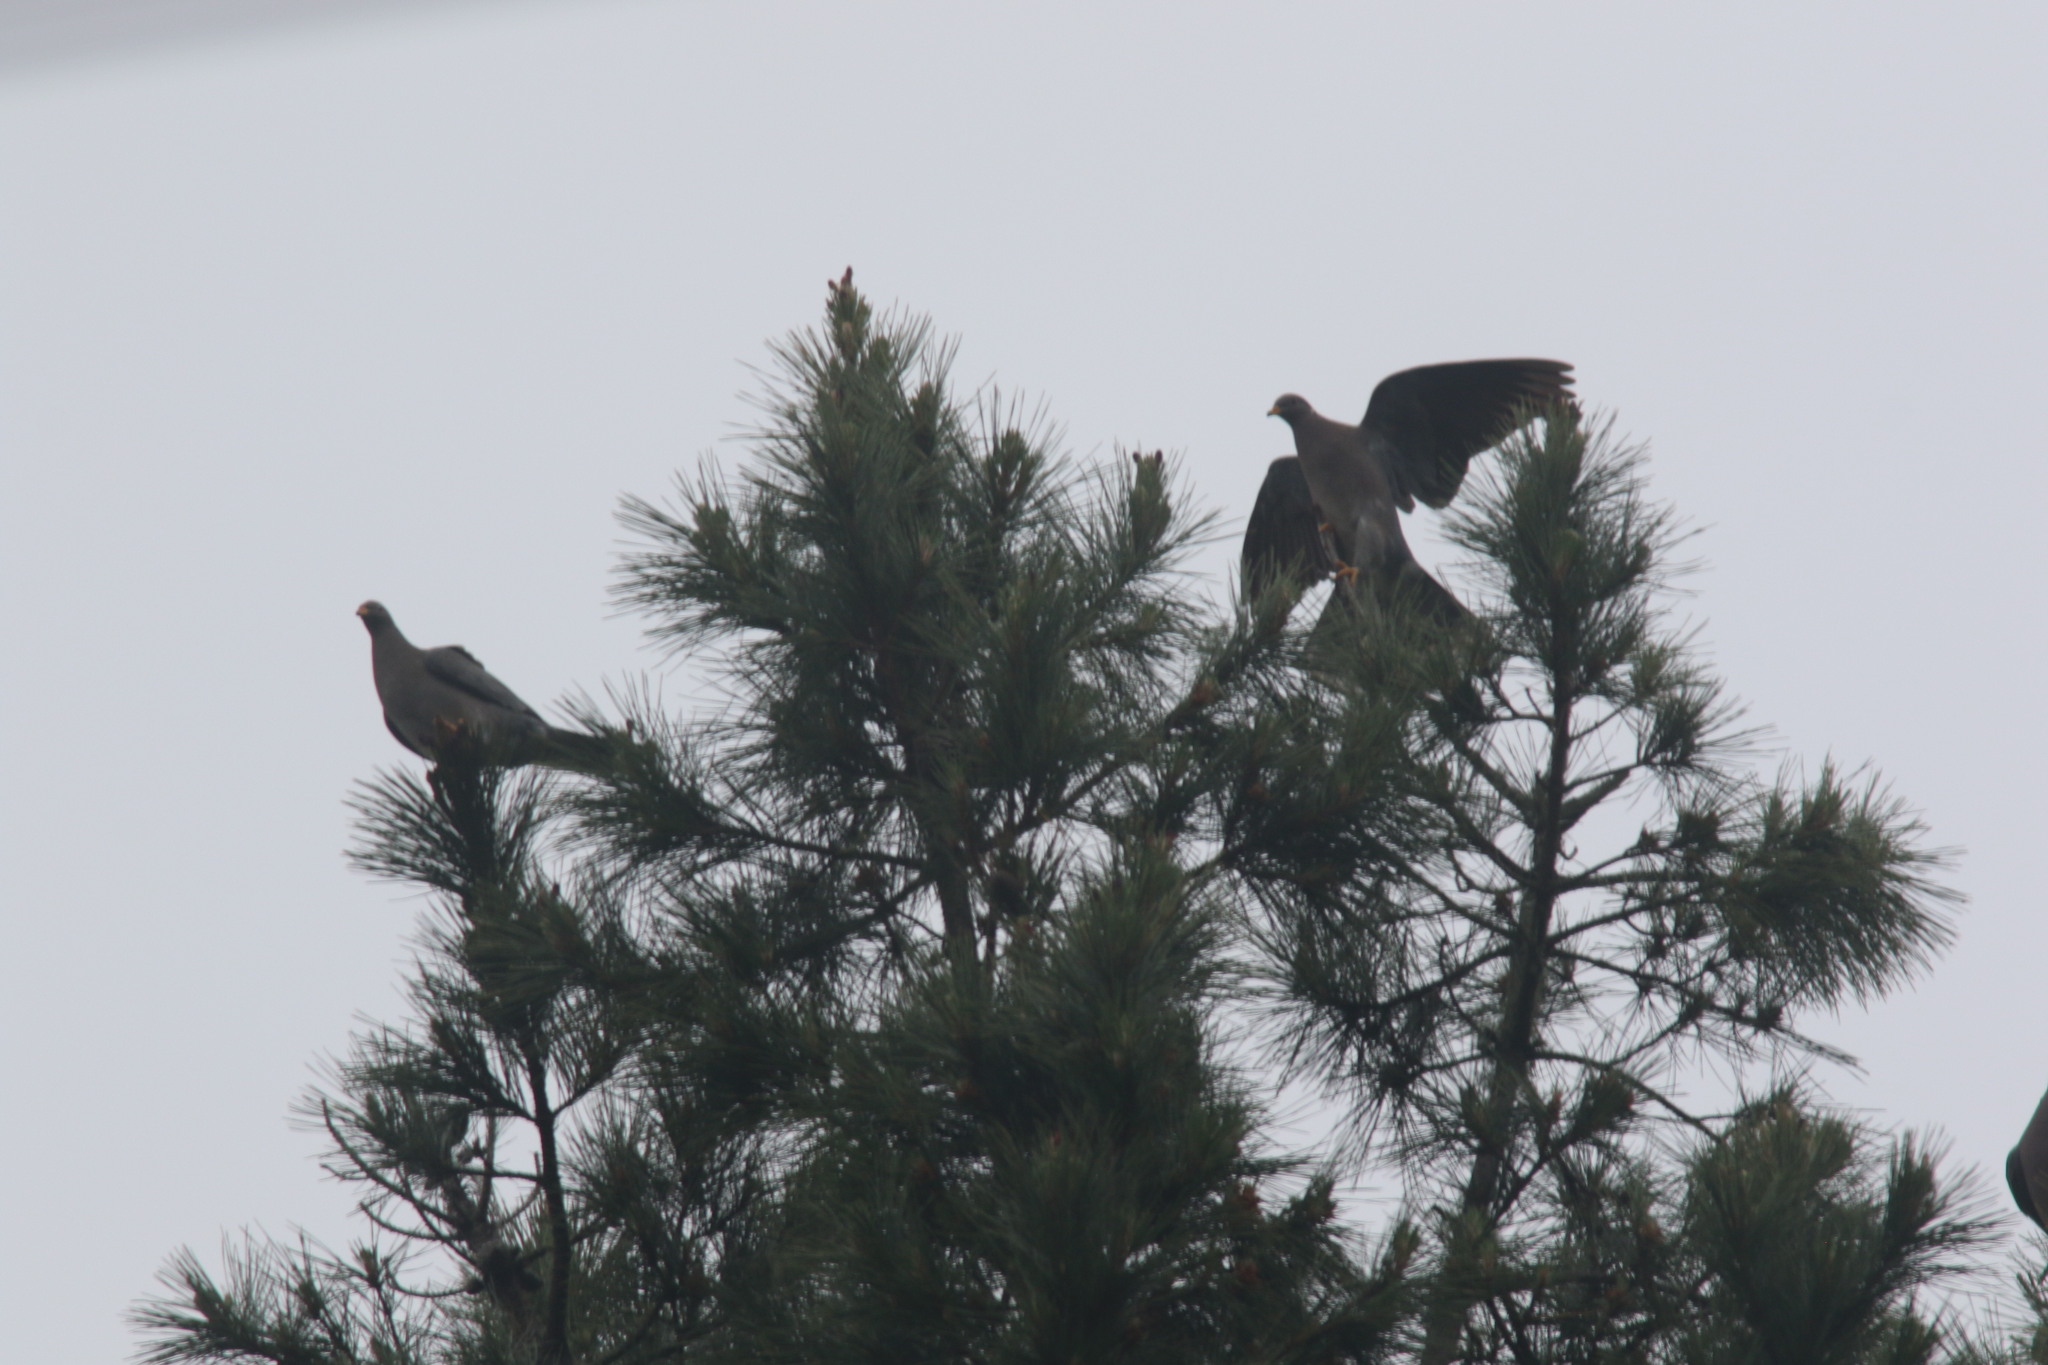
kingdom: Animalia
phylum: Chordata
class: Aves
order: Columbiformes
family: Columbidae
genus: Patagioenas
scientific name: Patagioenas fasciata
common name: Band-tailed pigeon
